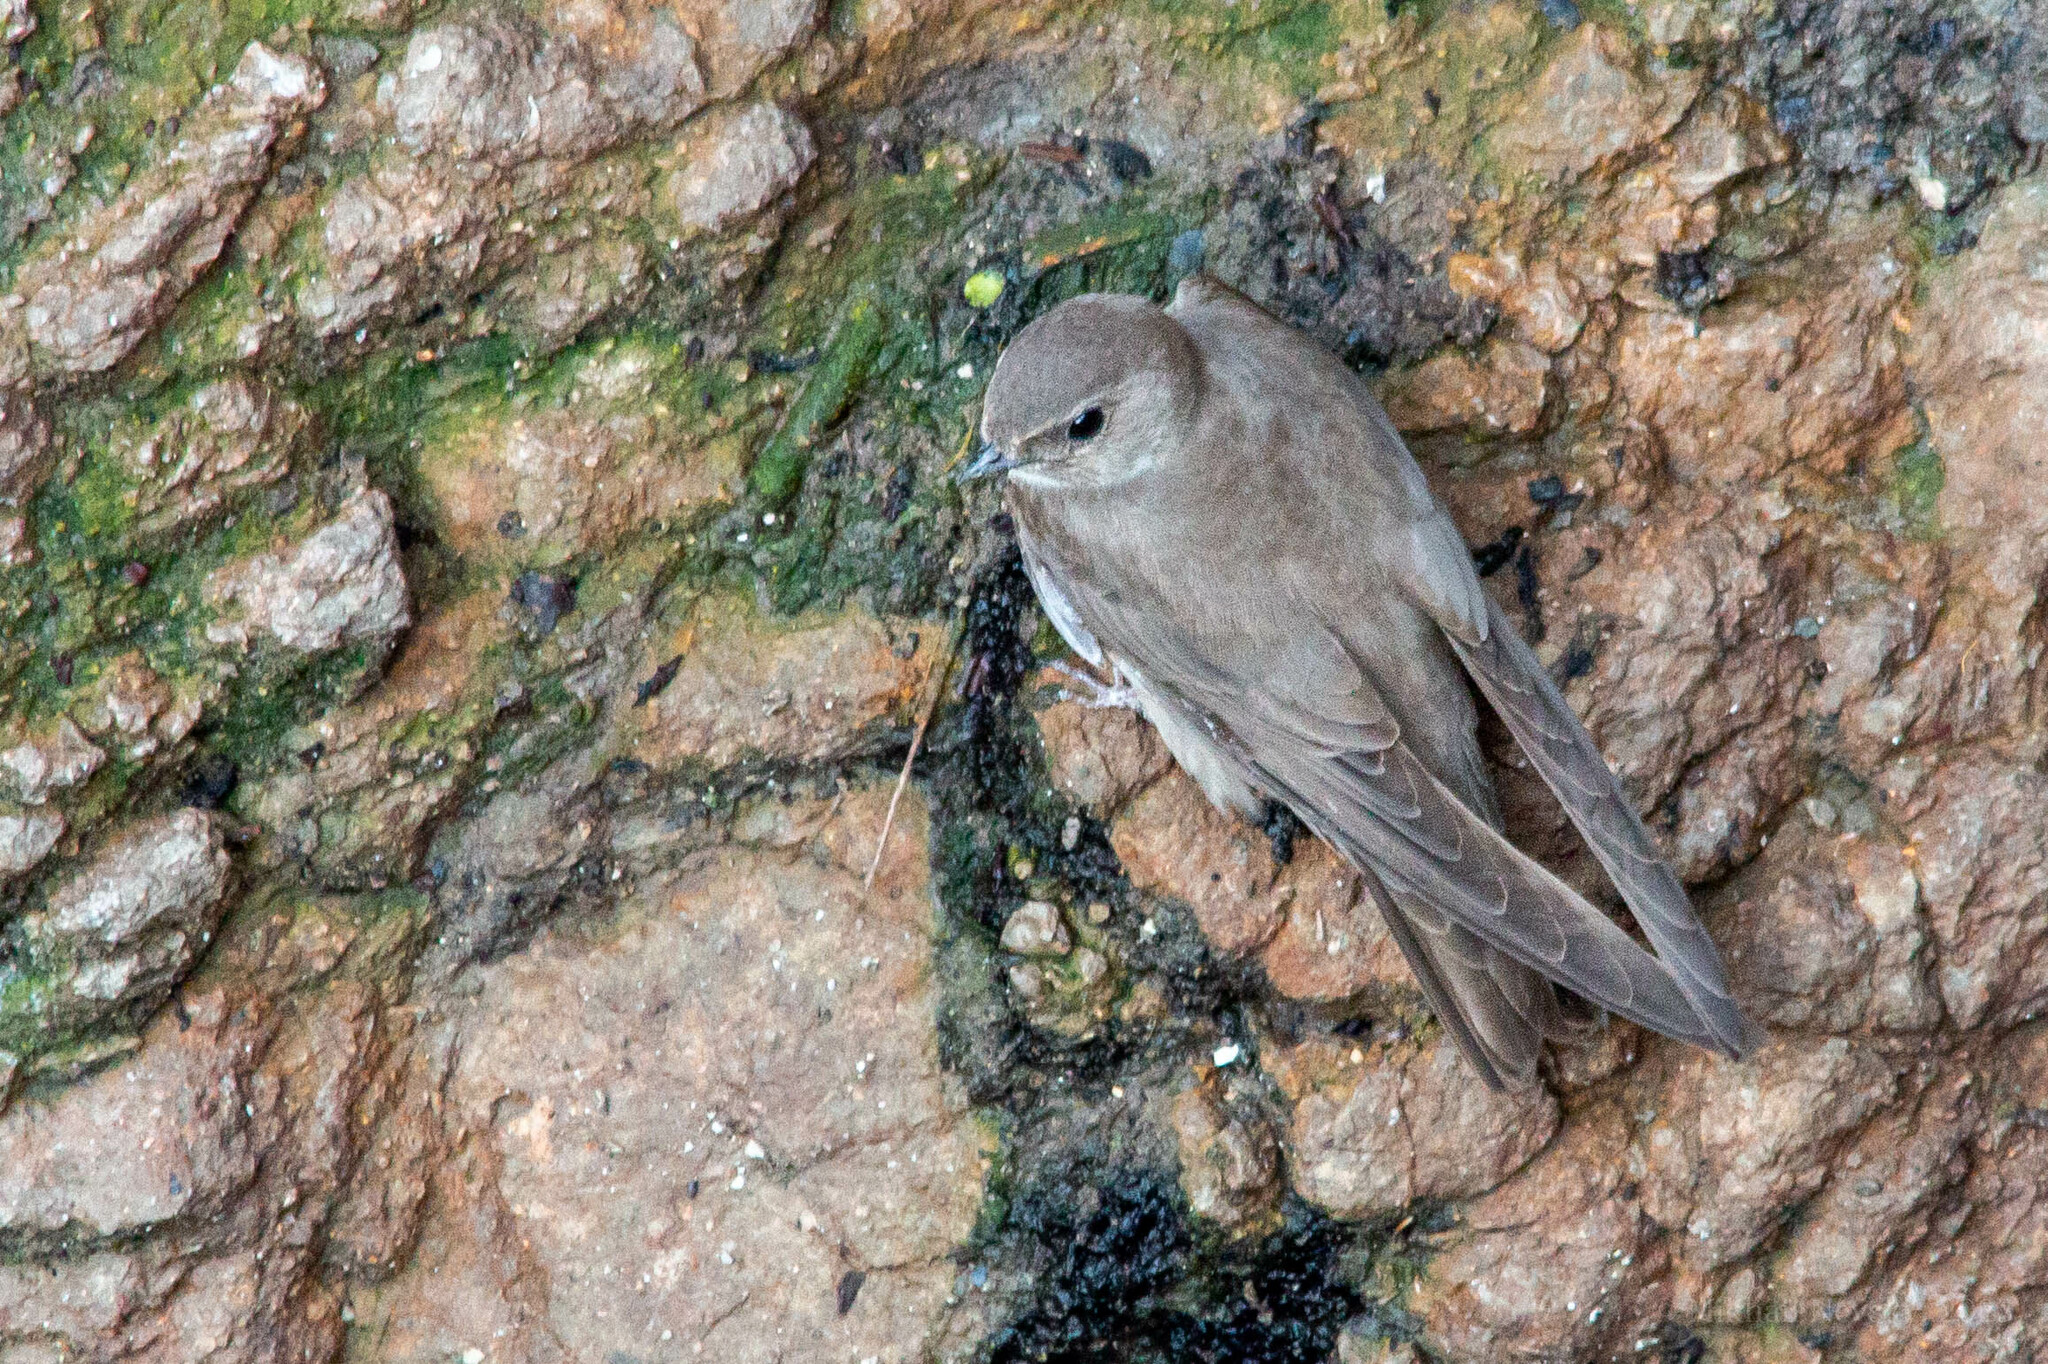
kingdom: Animalia
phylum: Chordata
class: Aves
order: Passeriformes
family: Hirundinidae
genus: Ptyonoprogne
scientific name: Ptyonoprogne rupestris
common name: Eurasian crag martin
